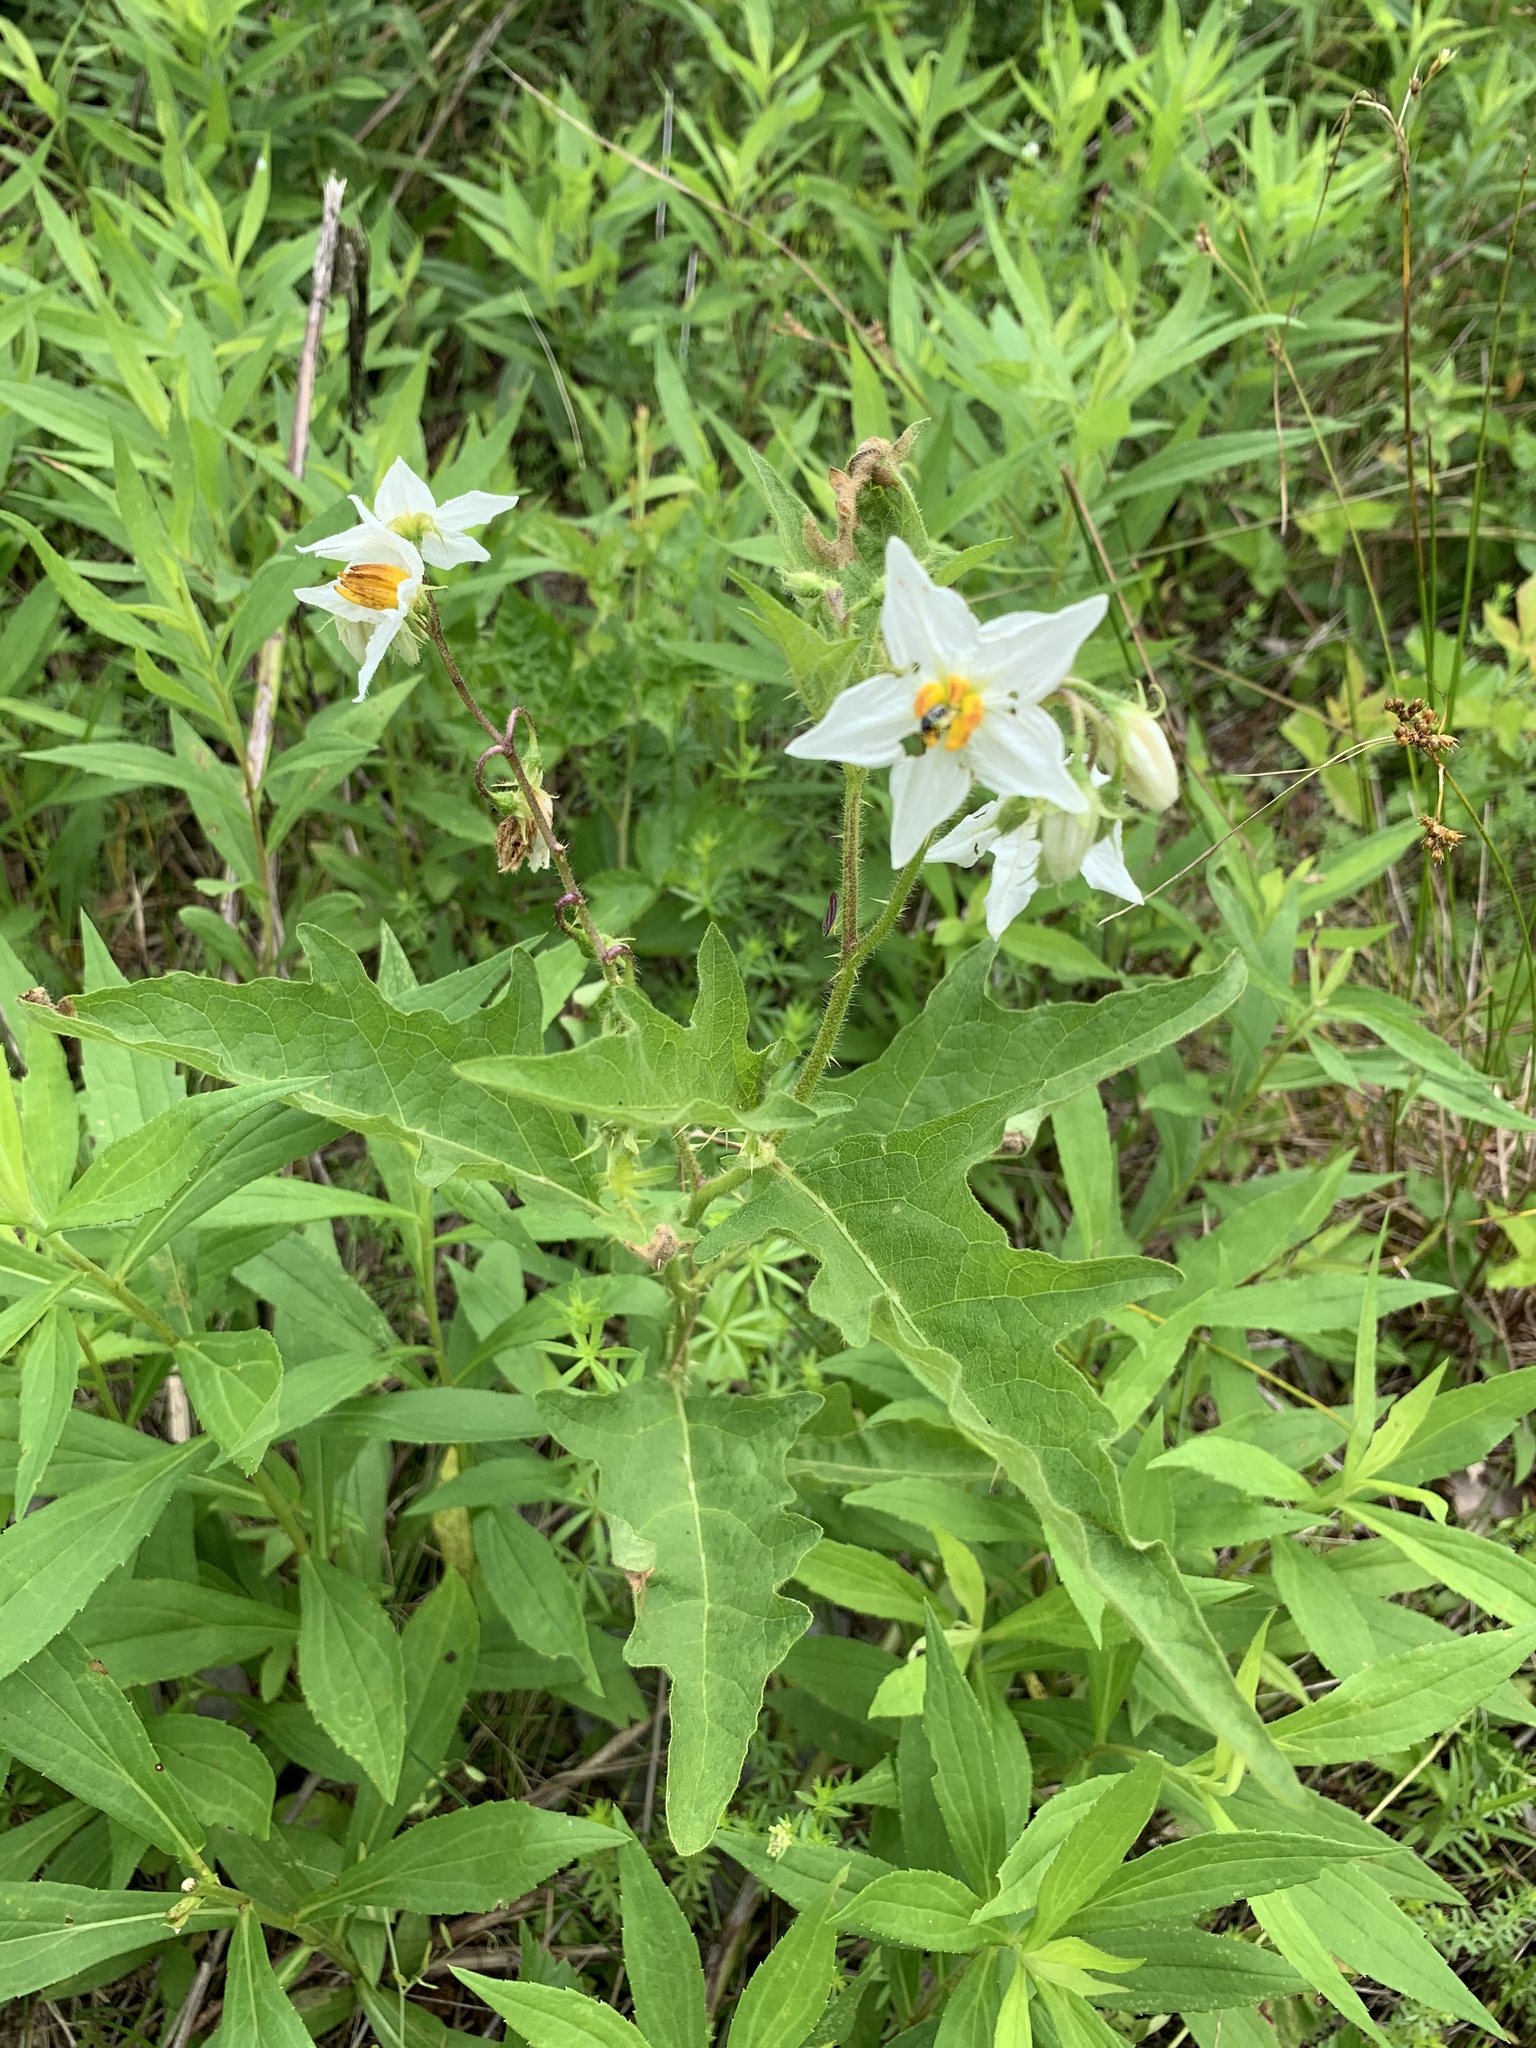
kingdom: Plantae
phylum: Tracheophyta
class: Magnoliopsida
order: Solanales
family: Solanaceae
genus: Solanum
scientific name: Solanum carolinense
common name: Horse-nettle
